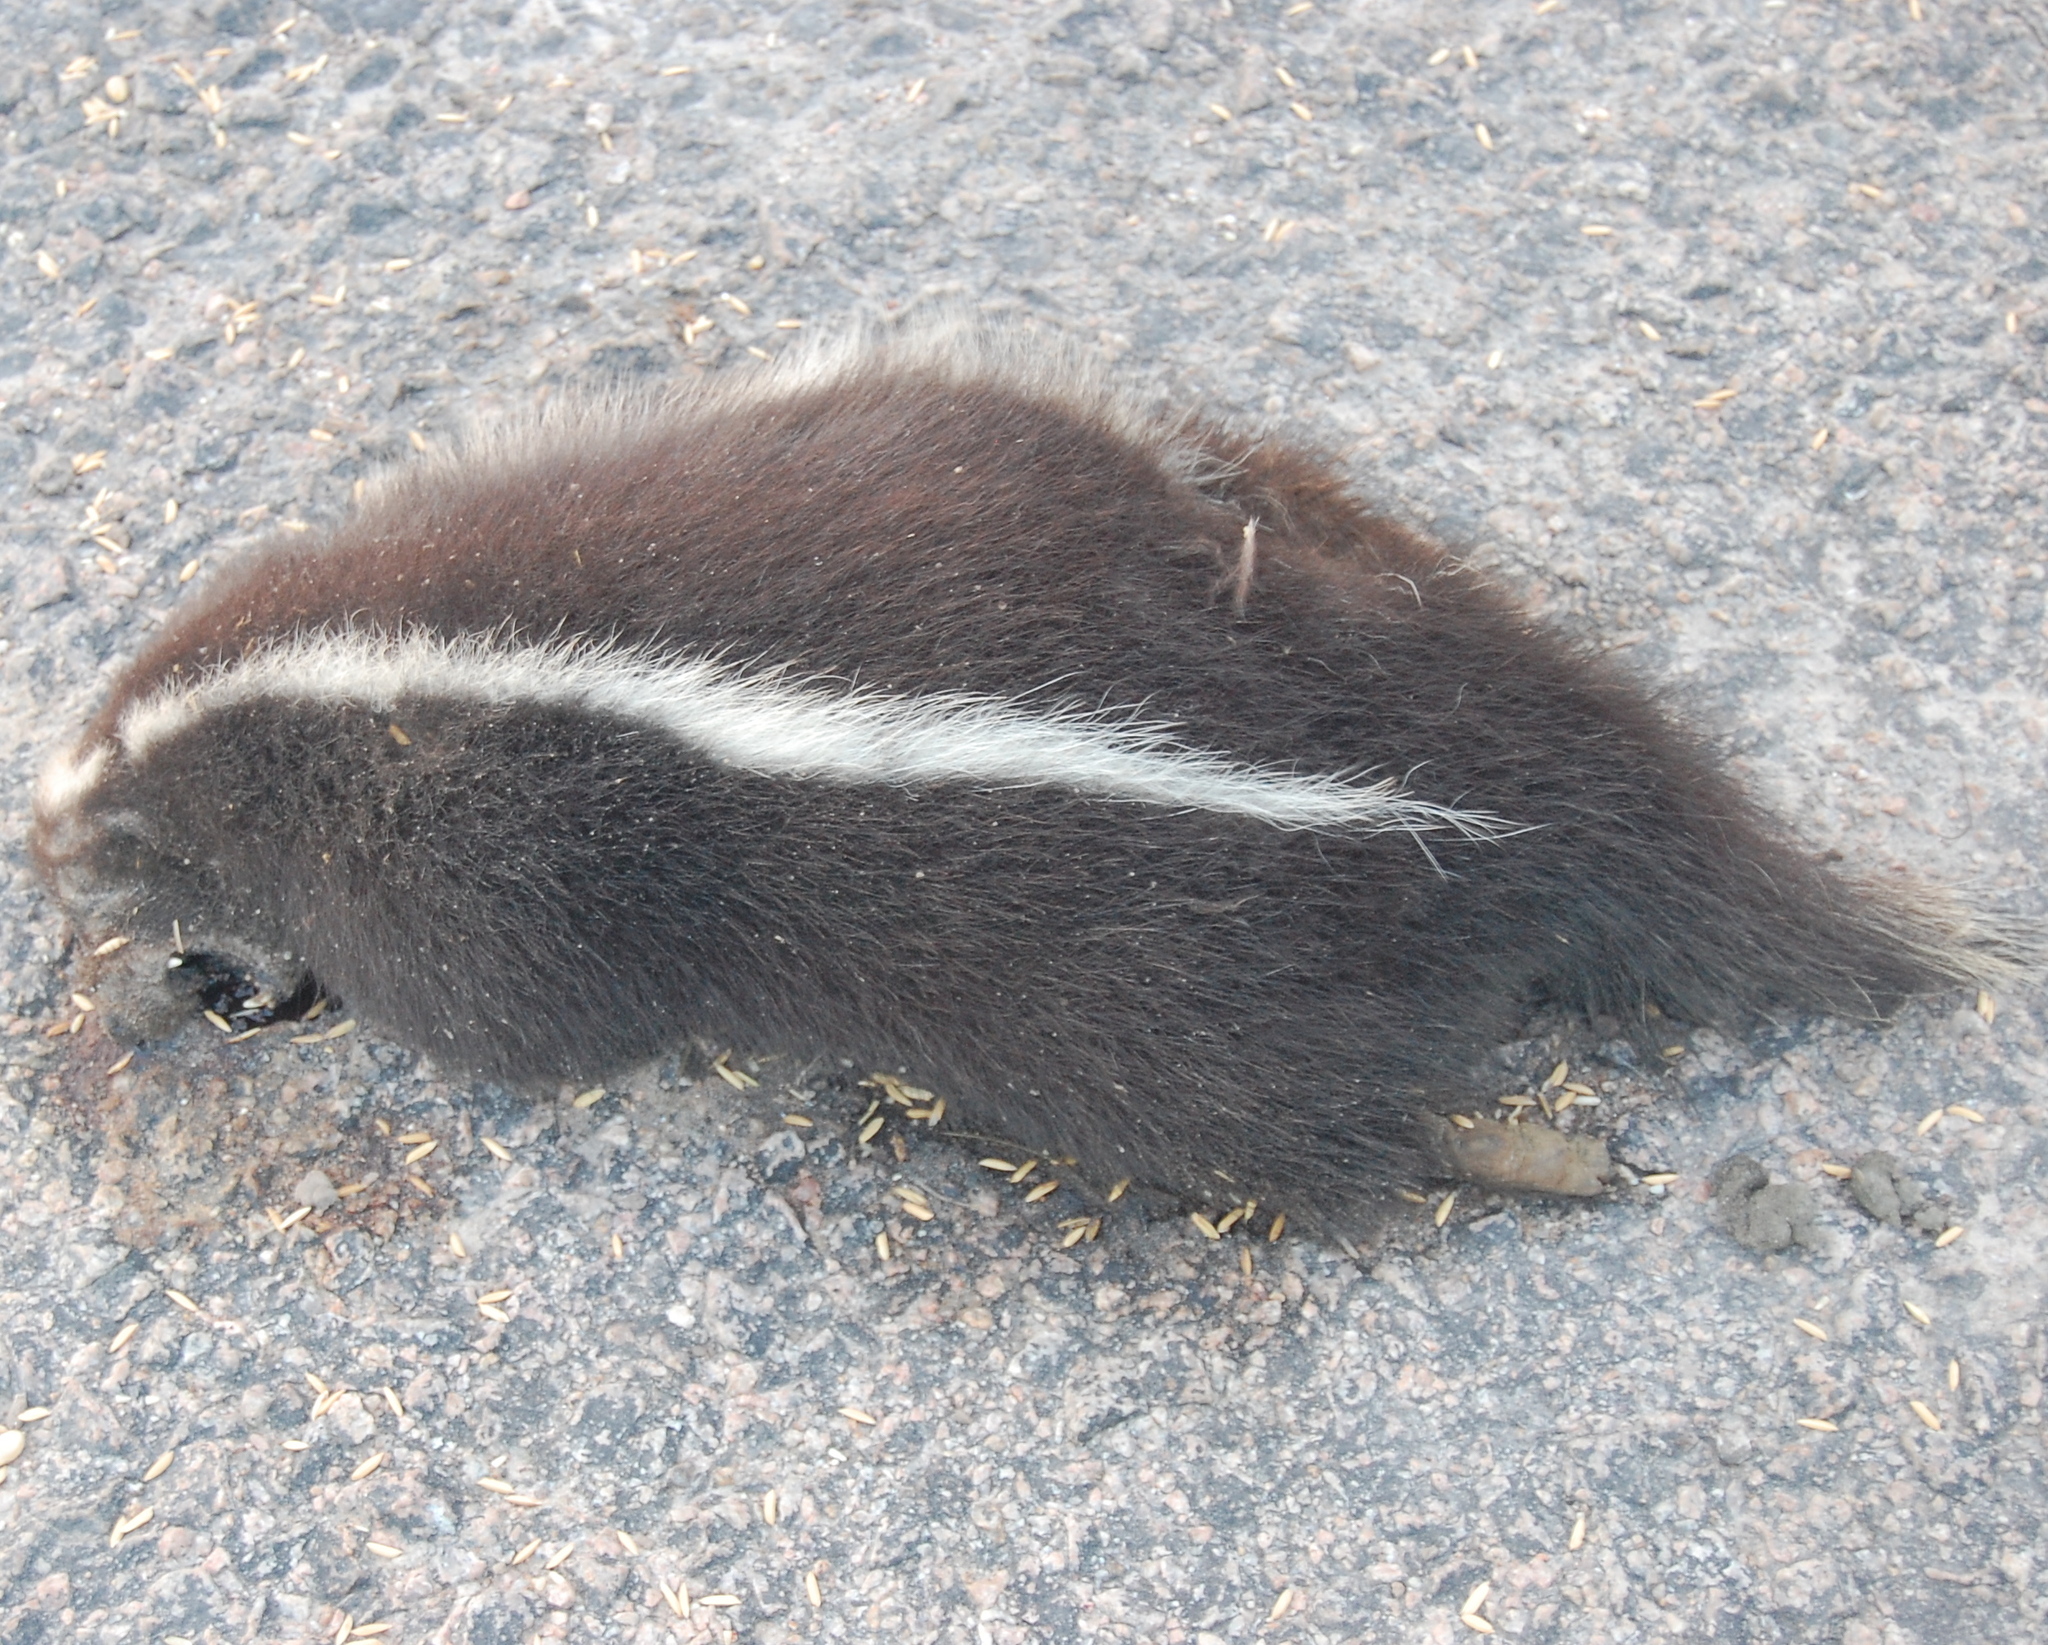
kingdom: Animalia
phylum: Chordata
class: Mammalia
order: Carnivora
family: Mephitidae
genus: Conepatus
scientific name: Conepatus chinga
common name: Molina's hog-nosed skunk
